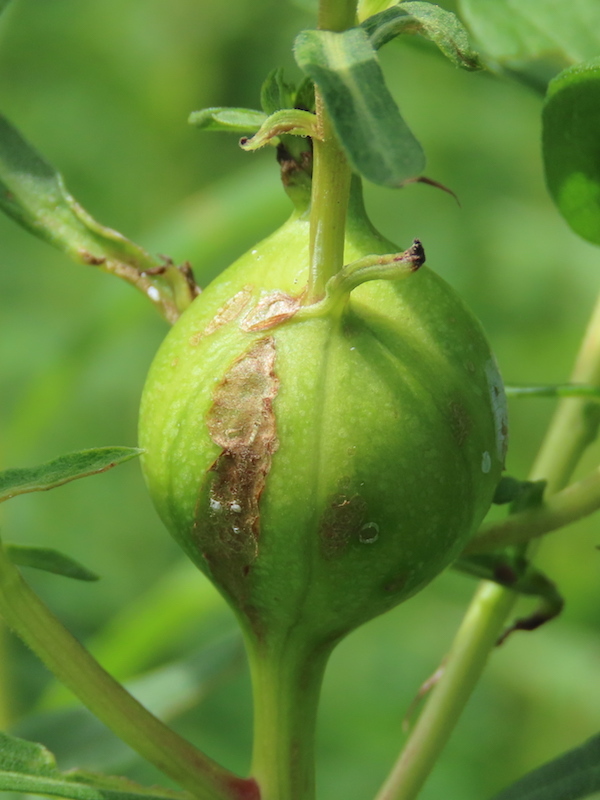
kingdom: Animalia
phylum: Arthropoda
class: Insecta
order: Diptera
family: Tephritidae
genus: Eurosta
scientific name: Eurosta solidaginis
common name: Goldenrod gall fly
